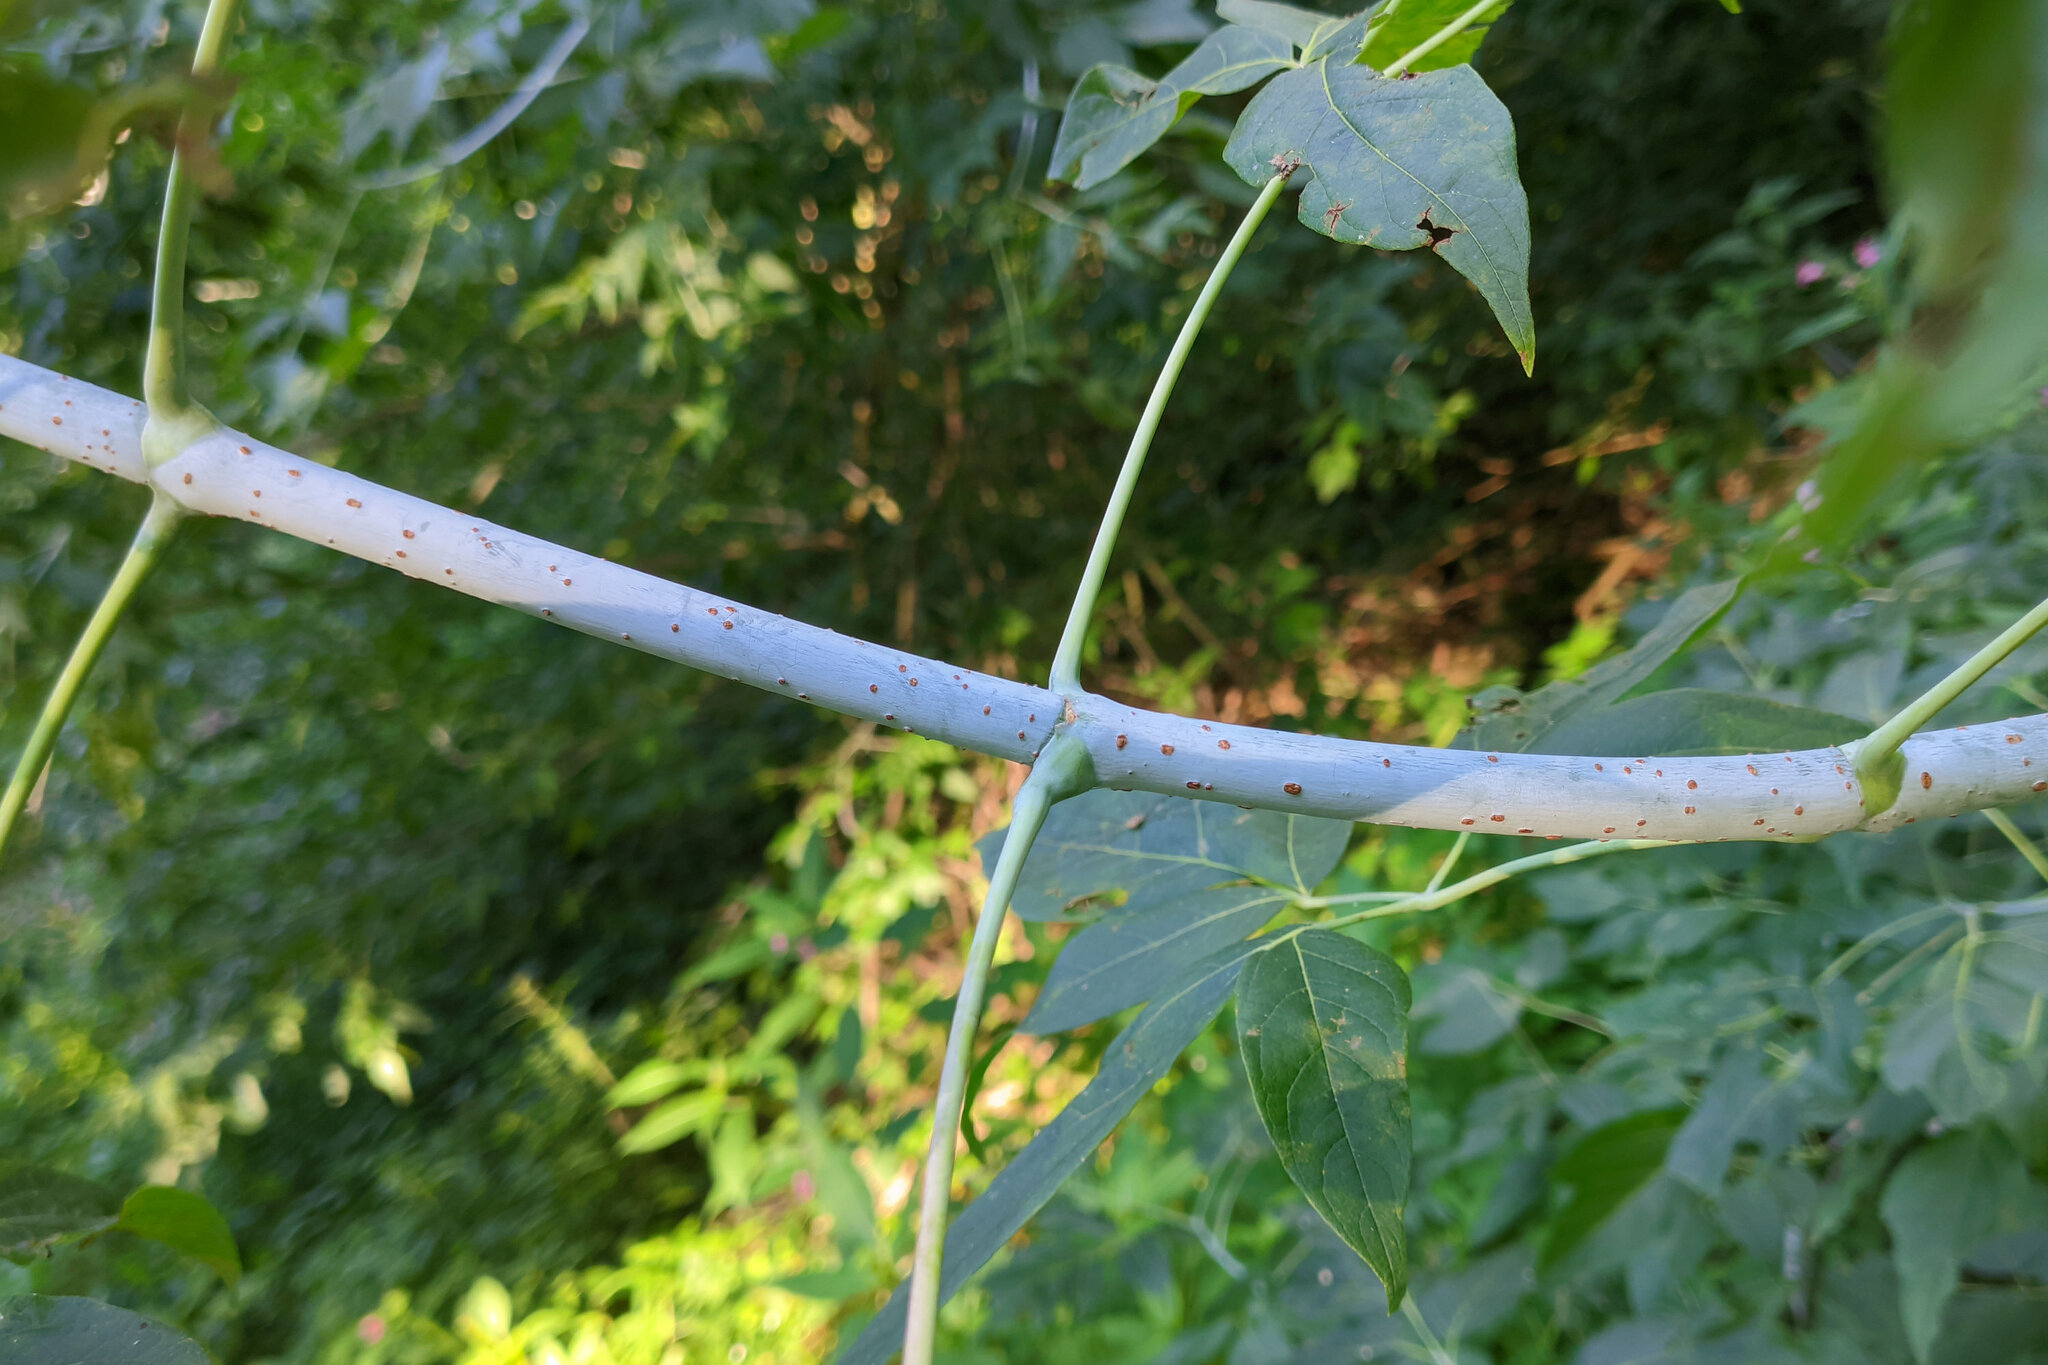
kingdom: Plantae
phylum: Tracheophyta
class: Magnoliopsida
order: Sapindales
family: Sapindaceae
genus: Acer
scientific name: Acer negundo
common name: Ashleaf maple
